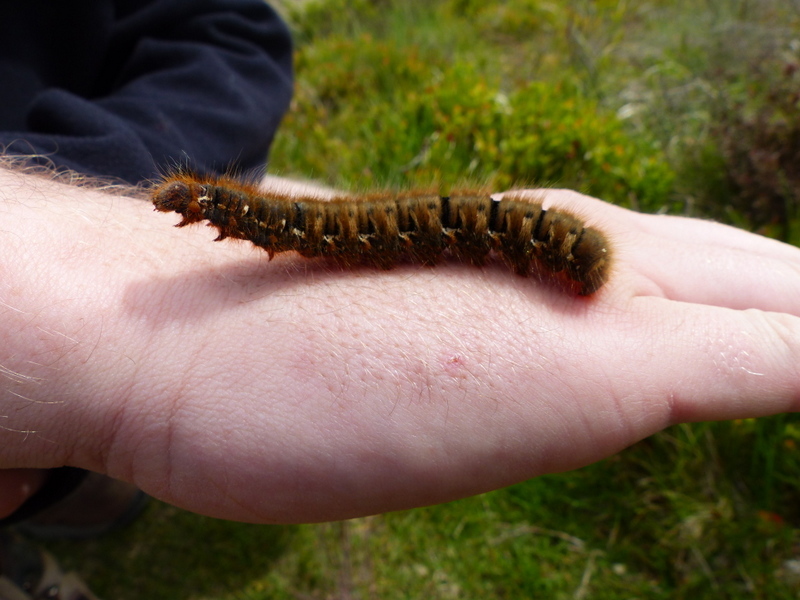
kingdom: Animalia
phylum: Arthropoda
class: Insecta
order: Lepidoptera
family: Lasiocampidae
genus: Lasiocampa
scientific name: Lasiocampa quercus
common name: Oak eggar
